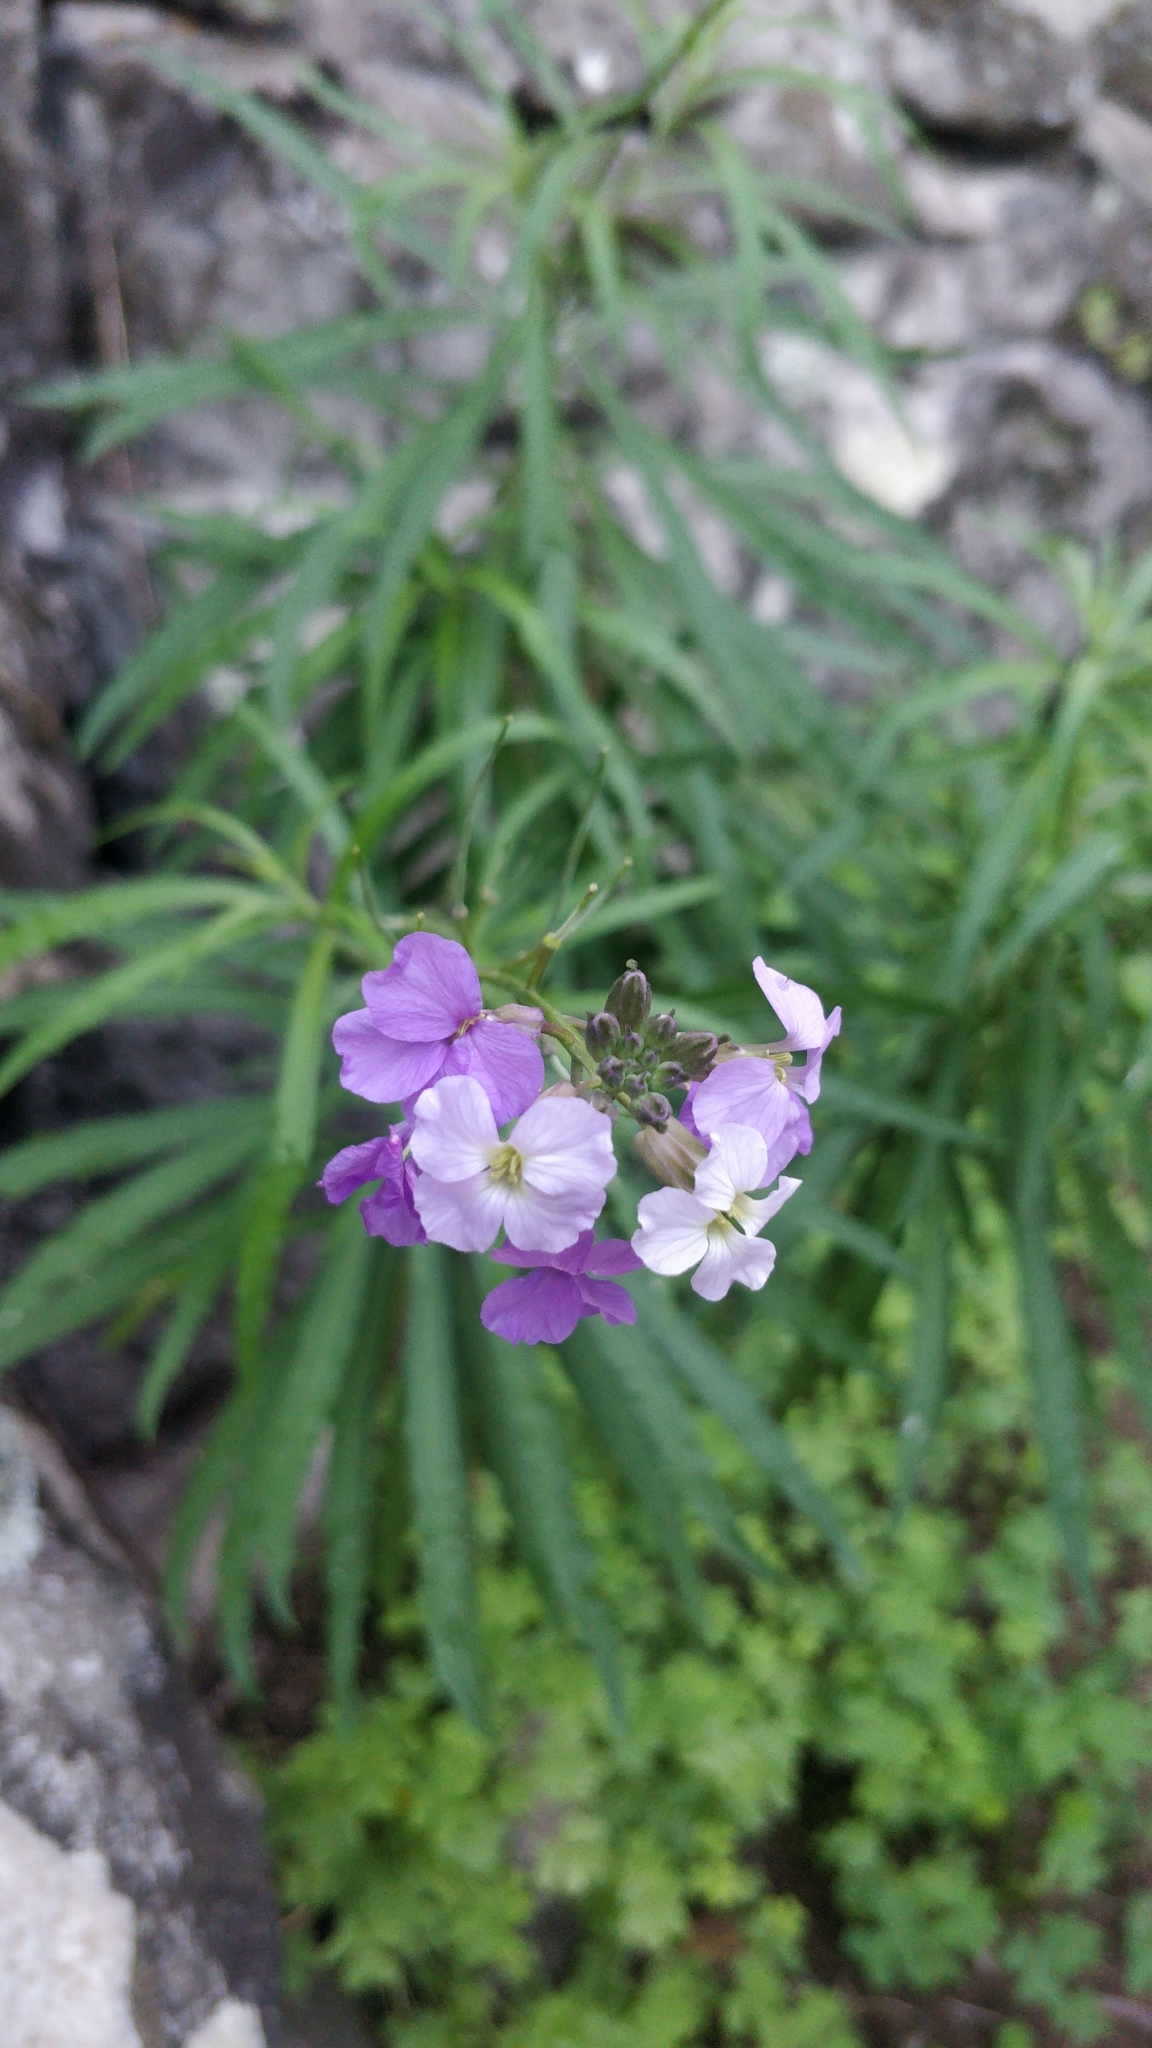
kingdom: Plantae
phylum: Tracheophyta
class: Magnoliopsida
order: Brassicales
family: Brassicaceae
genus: Erysimum
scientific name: Erysimum bicolor
